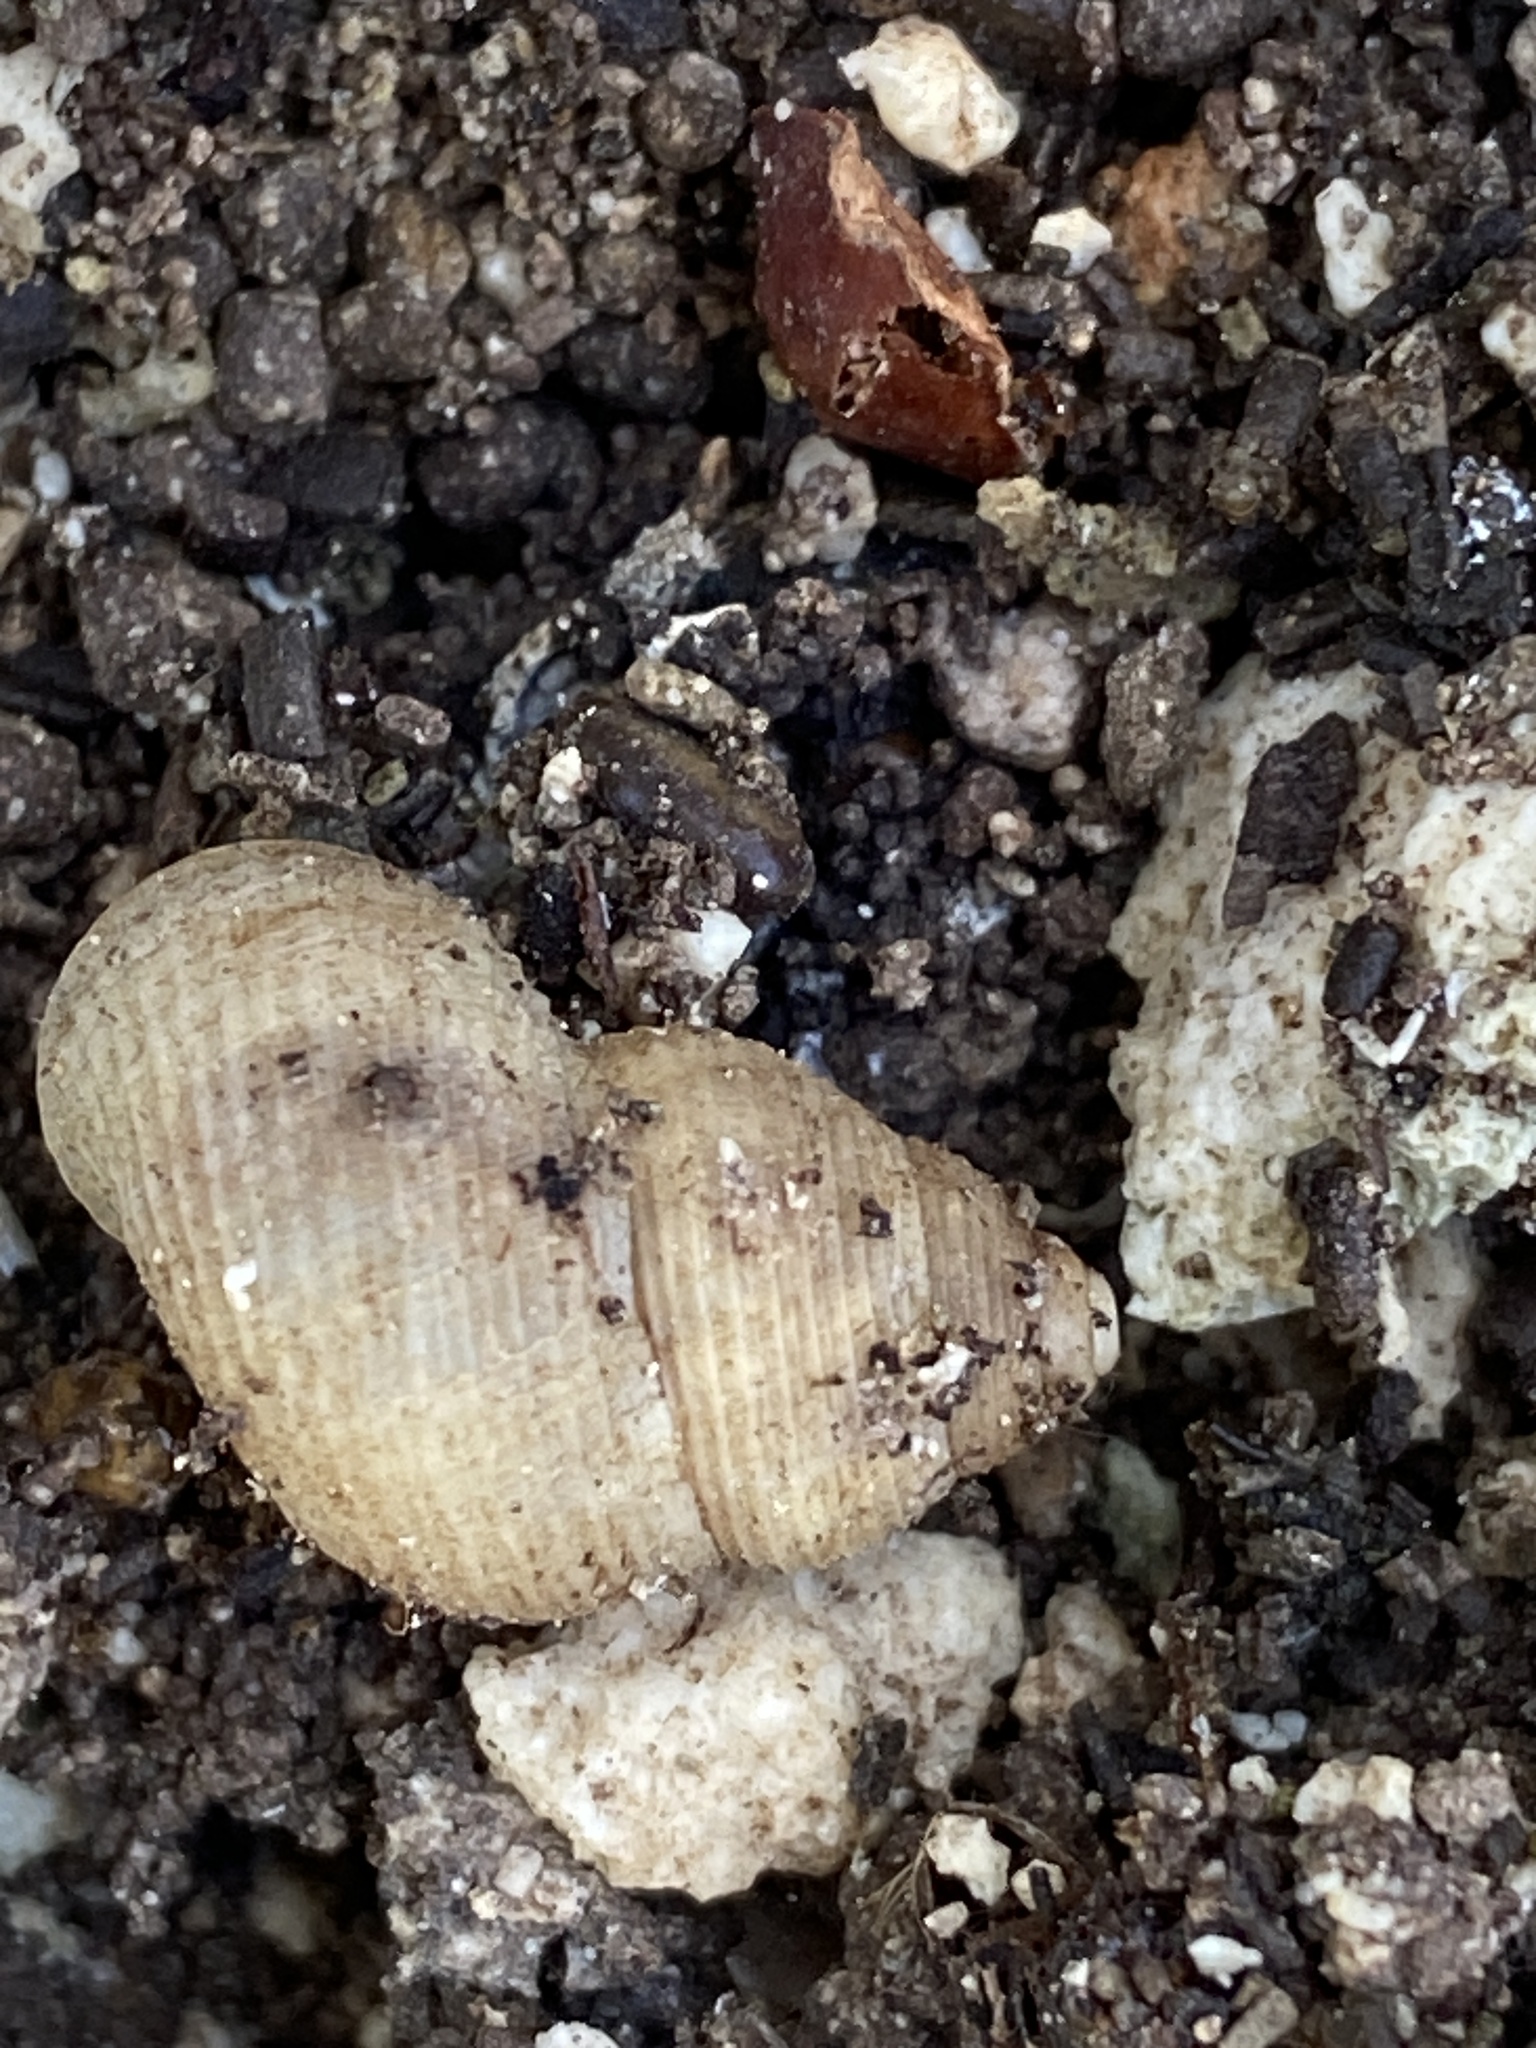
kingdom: Animalia
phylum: Mollusca
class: Gastropoda
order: Littorinimorpha
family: Pomatiidae
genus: Tudorella
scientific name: Tudorella melitensis
